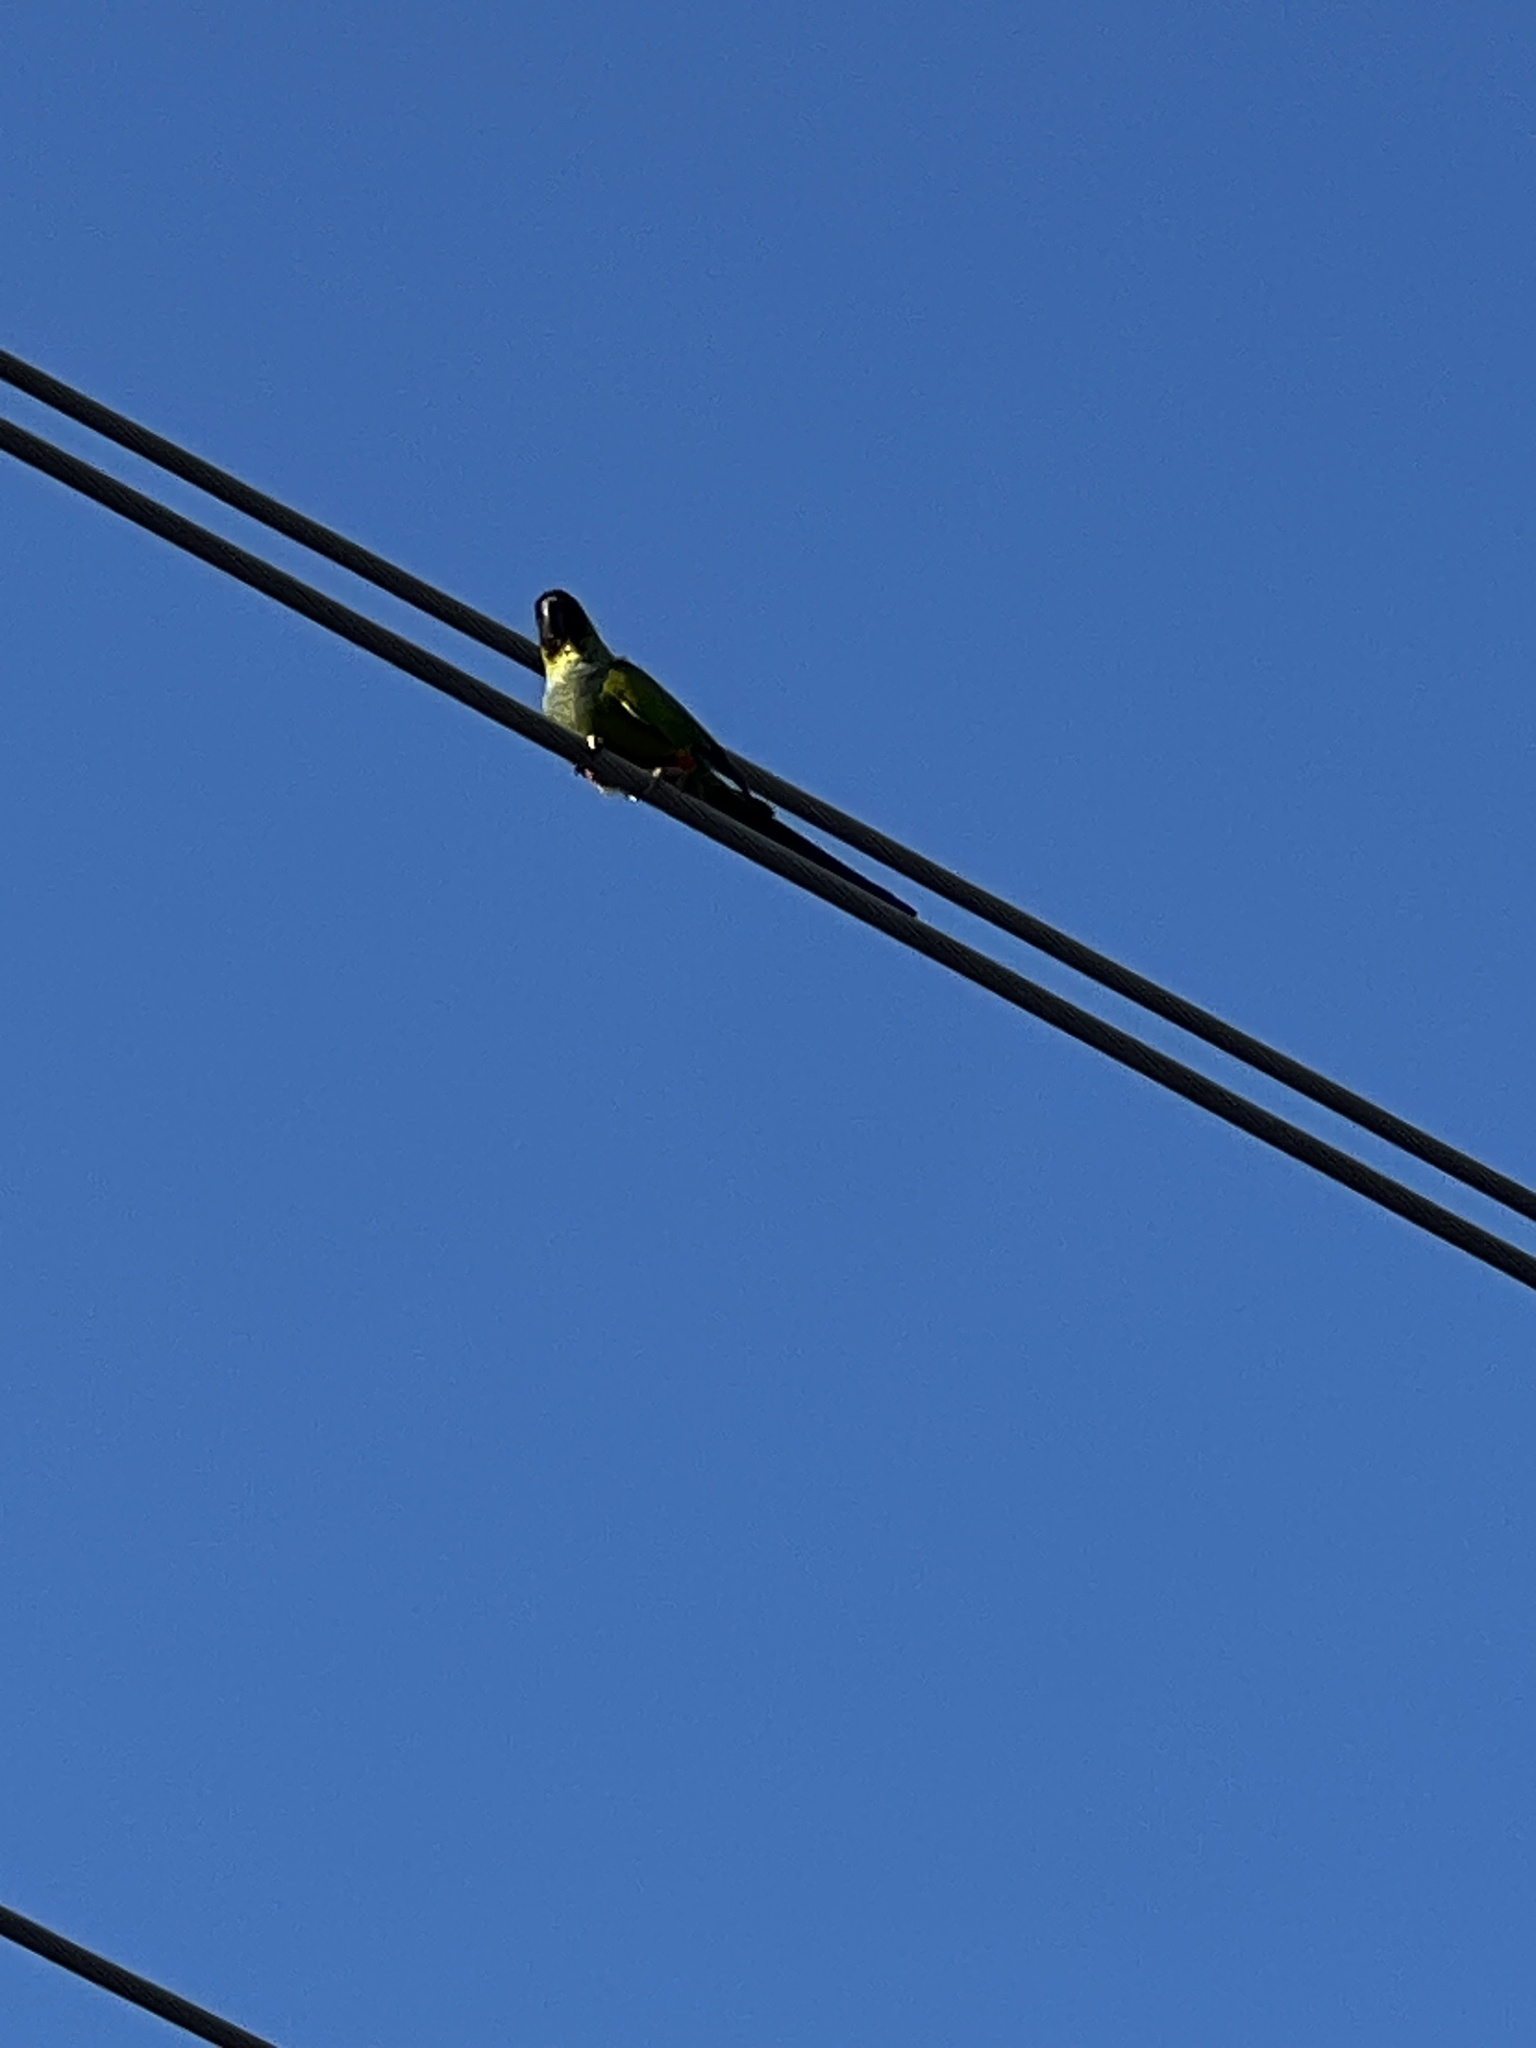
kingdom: Animalia
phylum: Chordata
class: Aves
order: Psittaciformes
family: Psittacidae
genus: Nandayus
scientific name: Nandayus nenday
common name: Nanday parakeet
